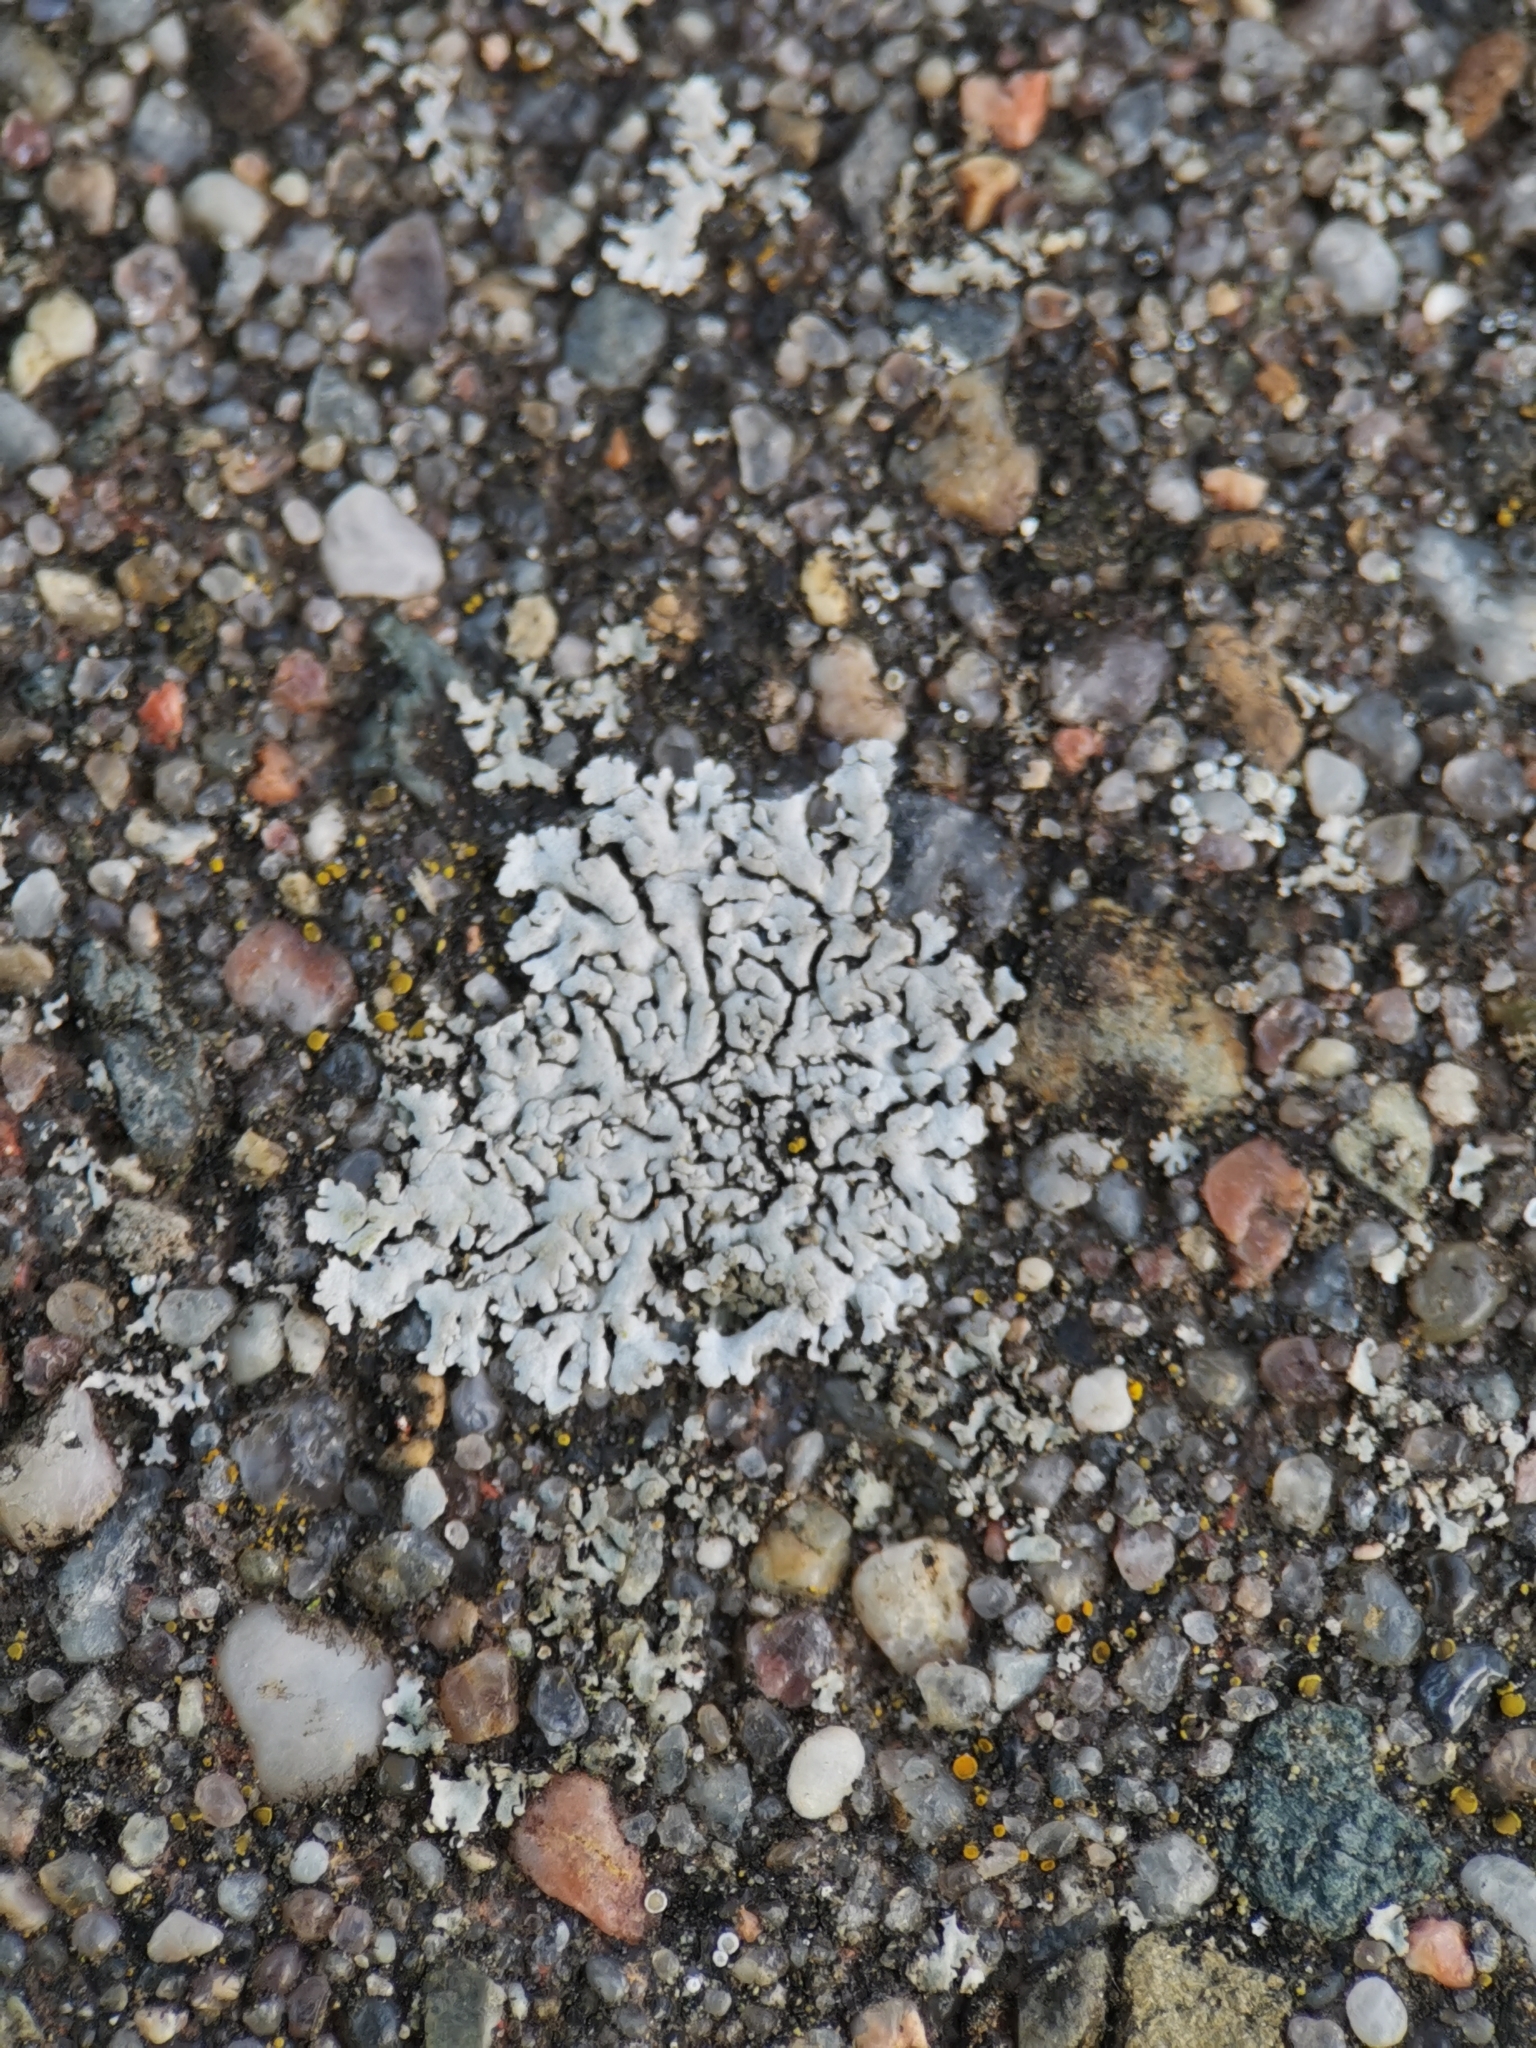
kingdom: Fungi
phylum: Ascomycota
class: Lecanoromycetes
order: Caliciales
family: Physciaceae
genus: Physcia
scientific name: Physcia caesia
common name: Blue-gray rosette lichen
